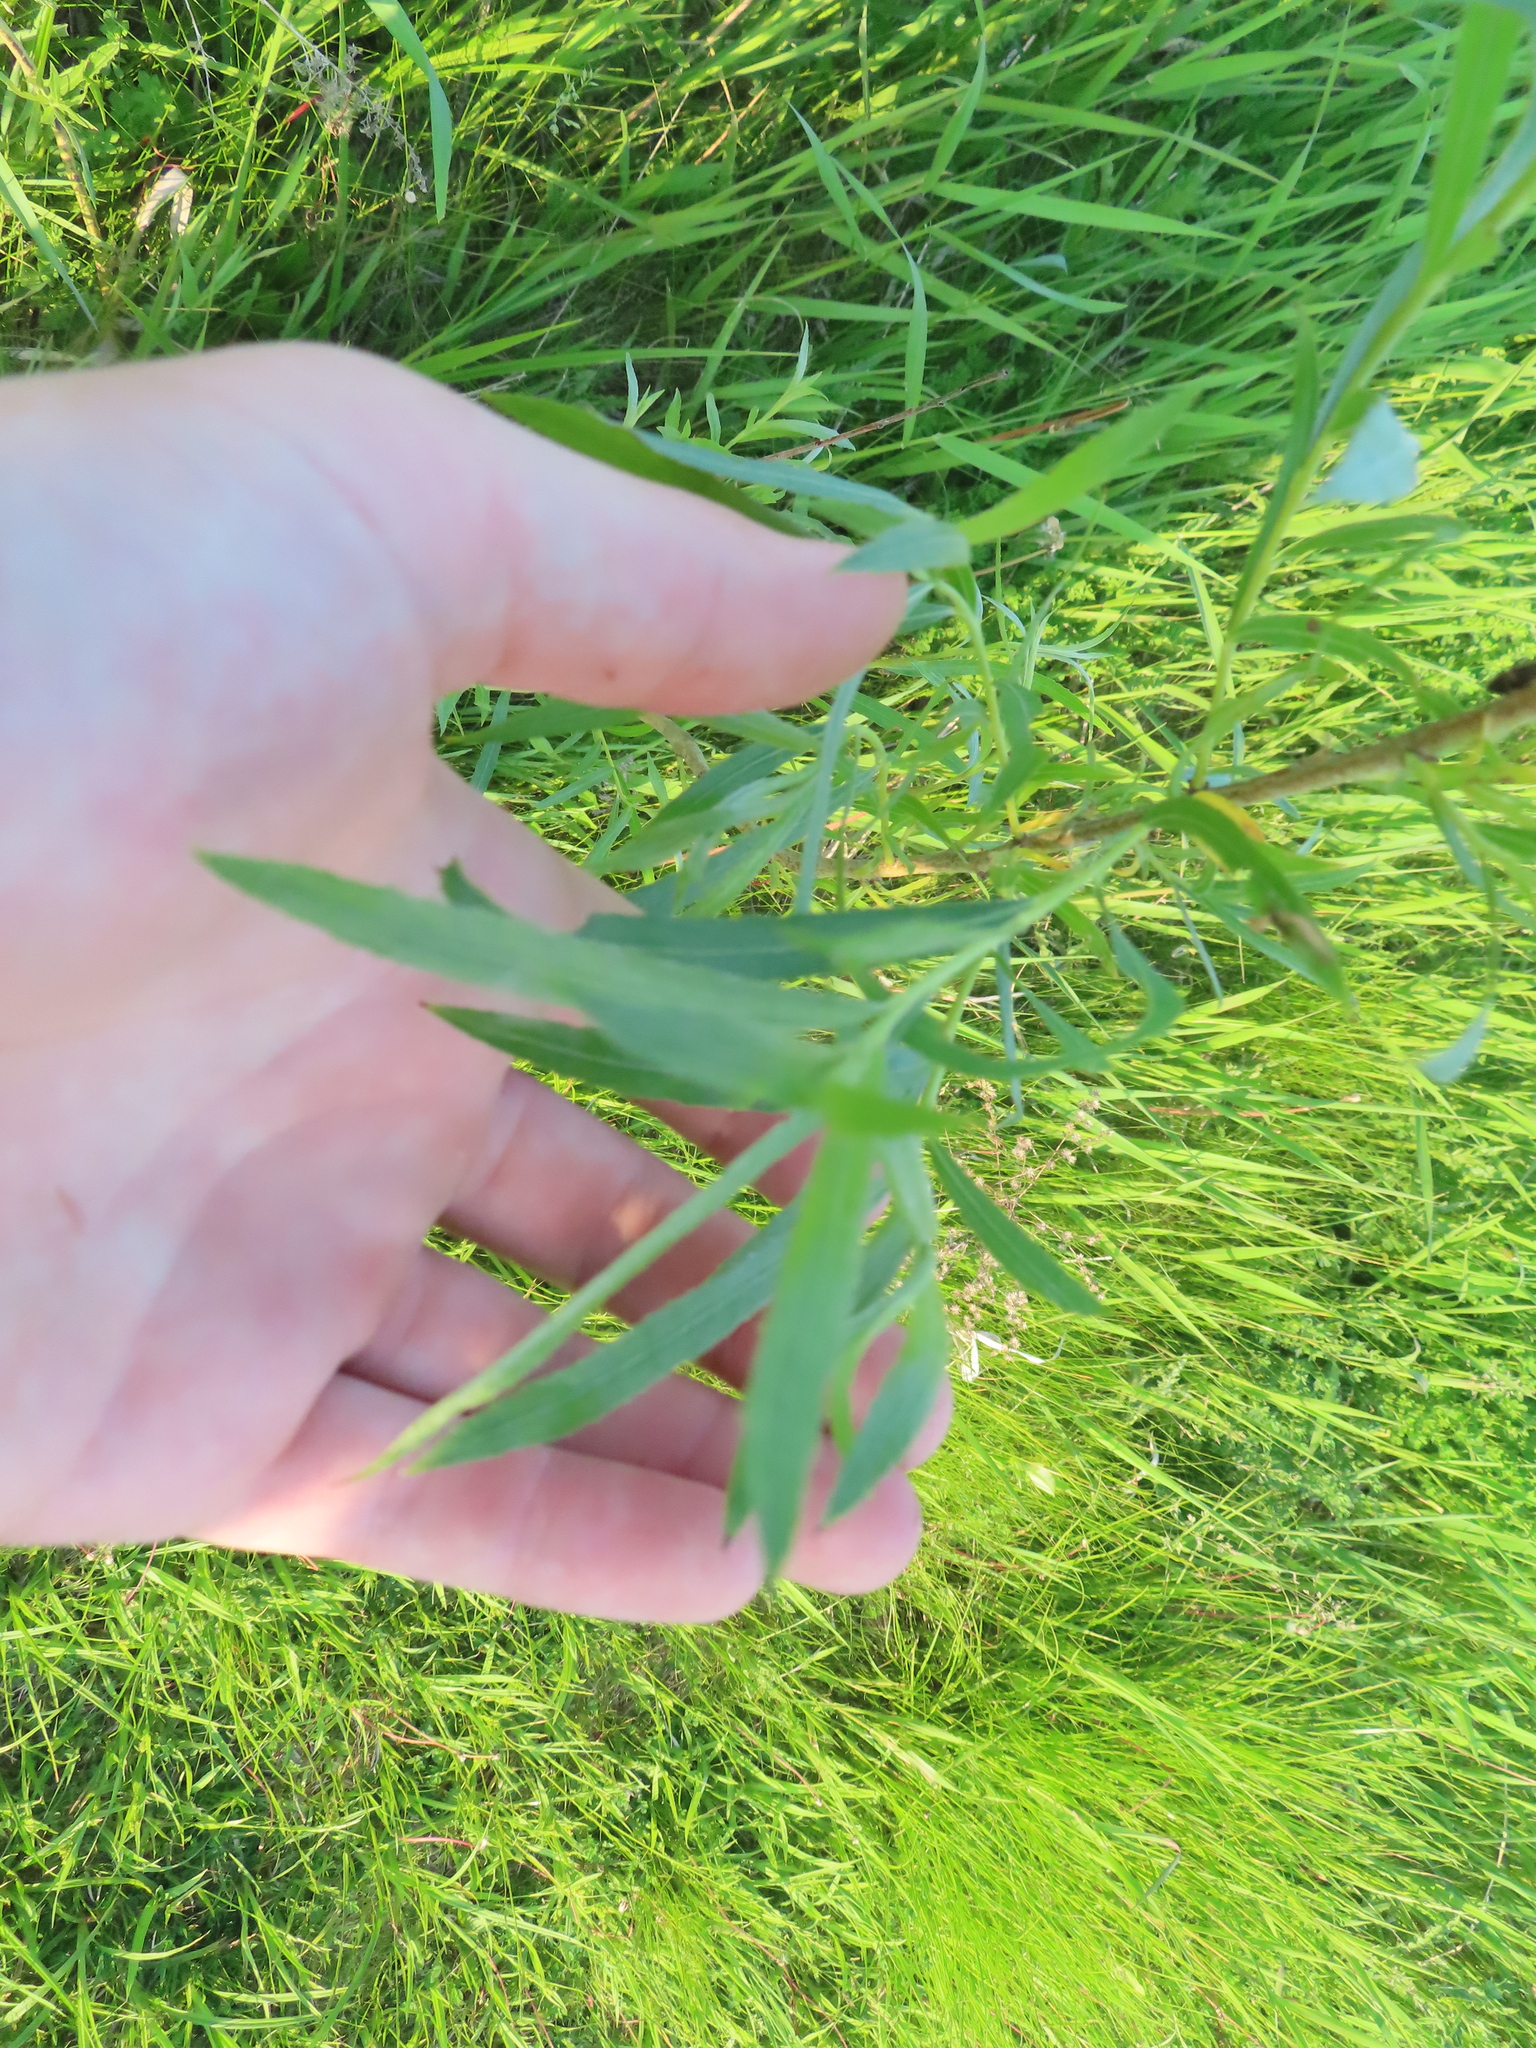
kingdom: Plantae
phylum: Tracheophyta
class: Magnoliopsida
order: Malpighiales
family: Salicaceae
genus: Salix
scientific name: Salix interior
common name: Sandbar willow
